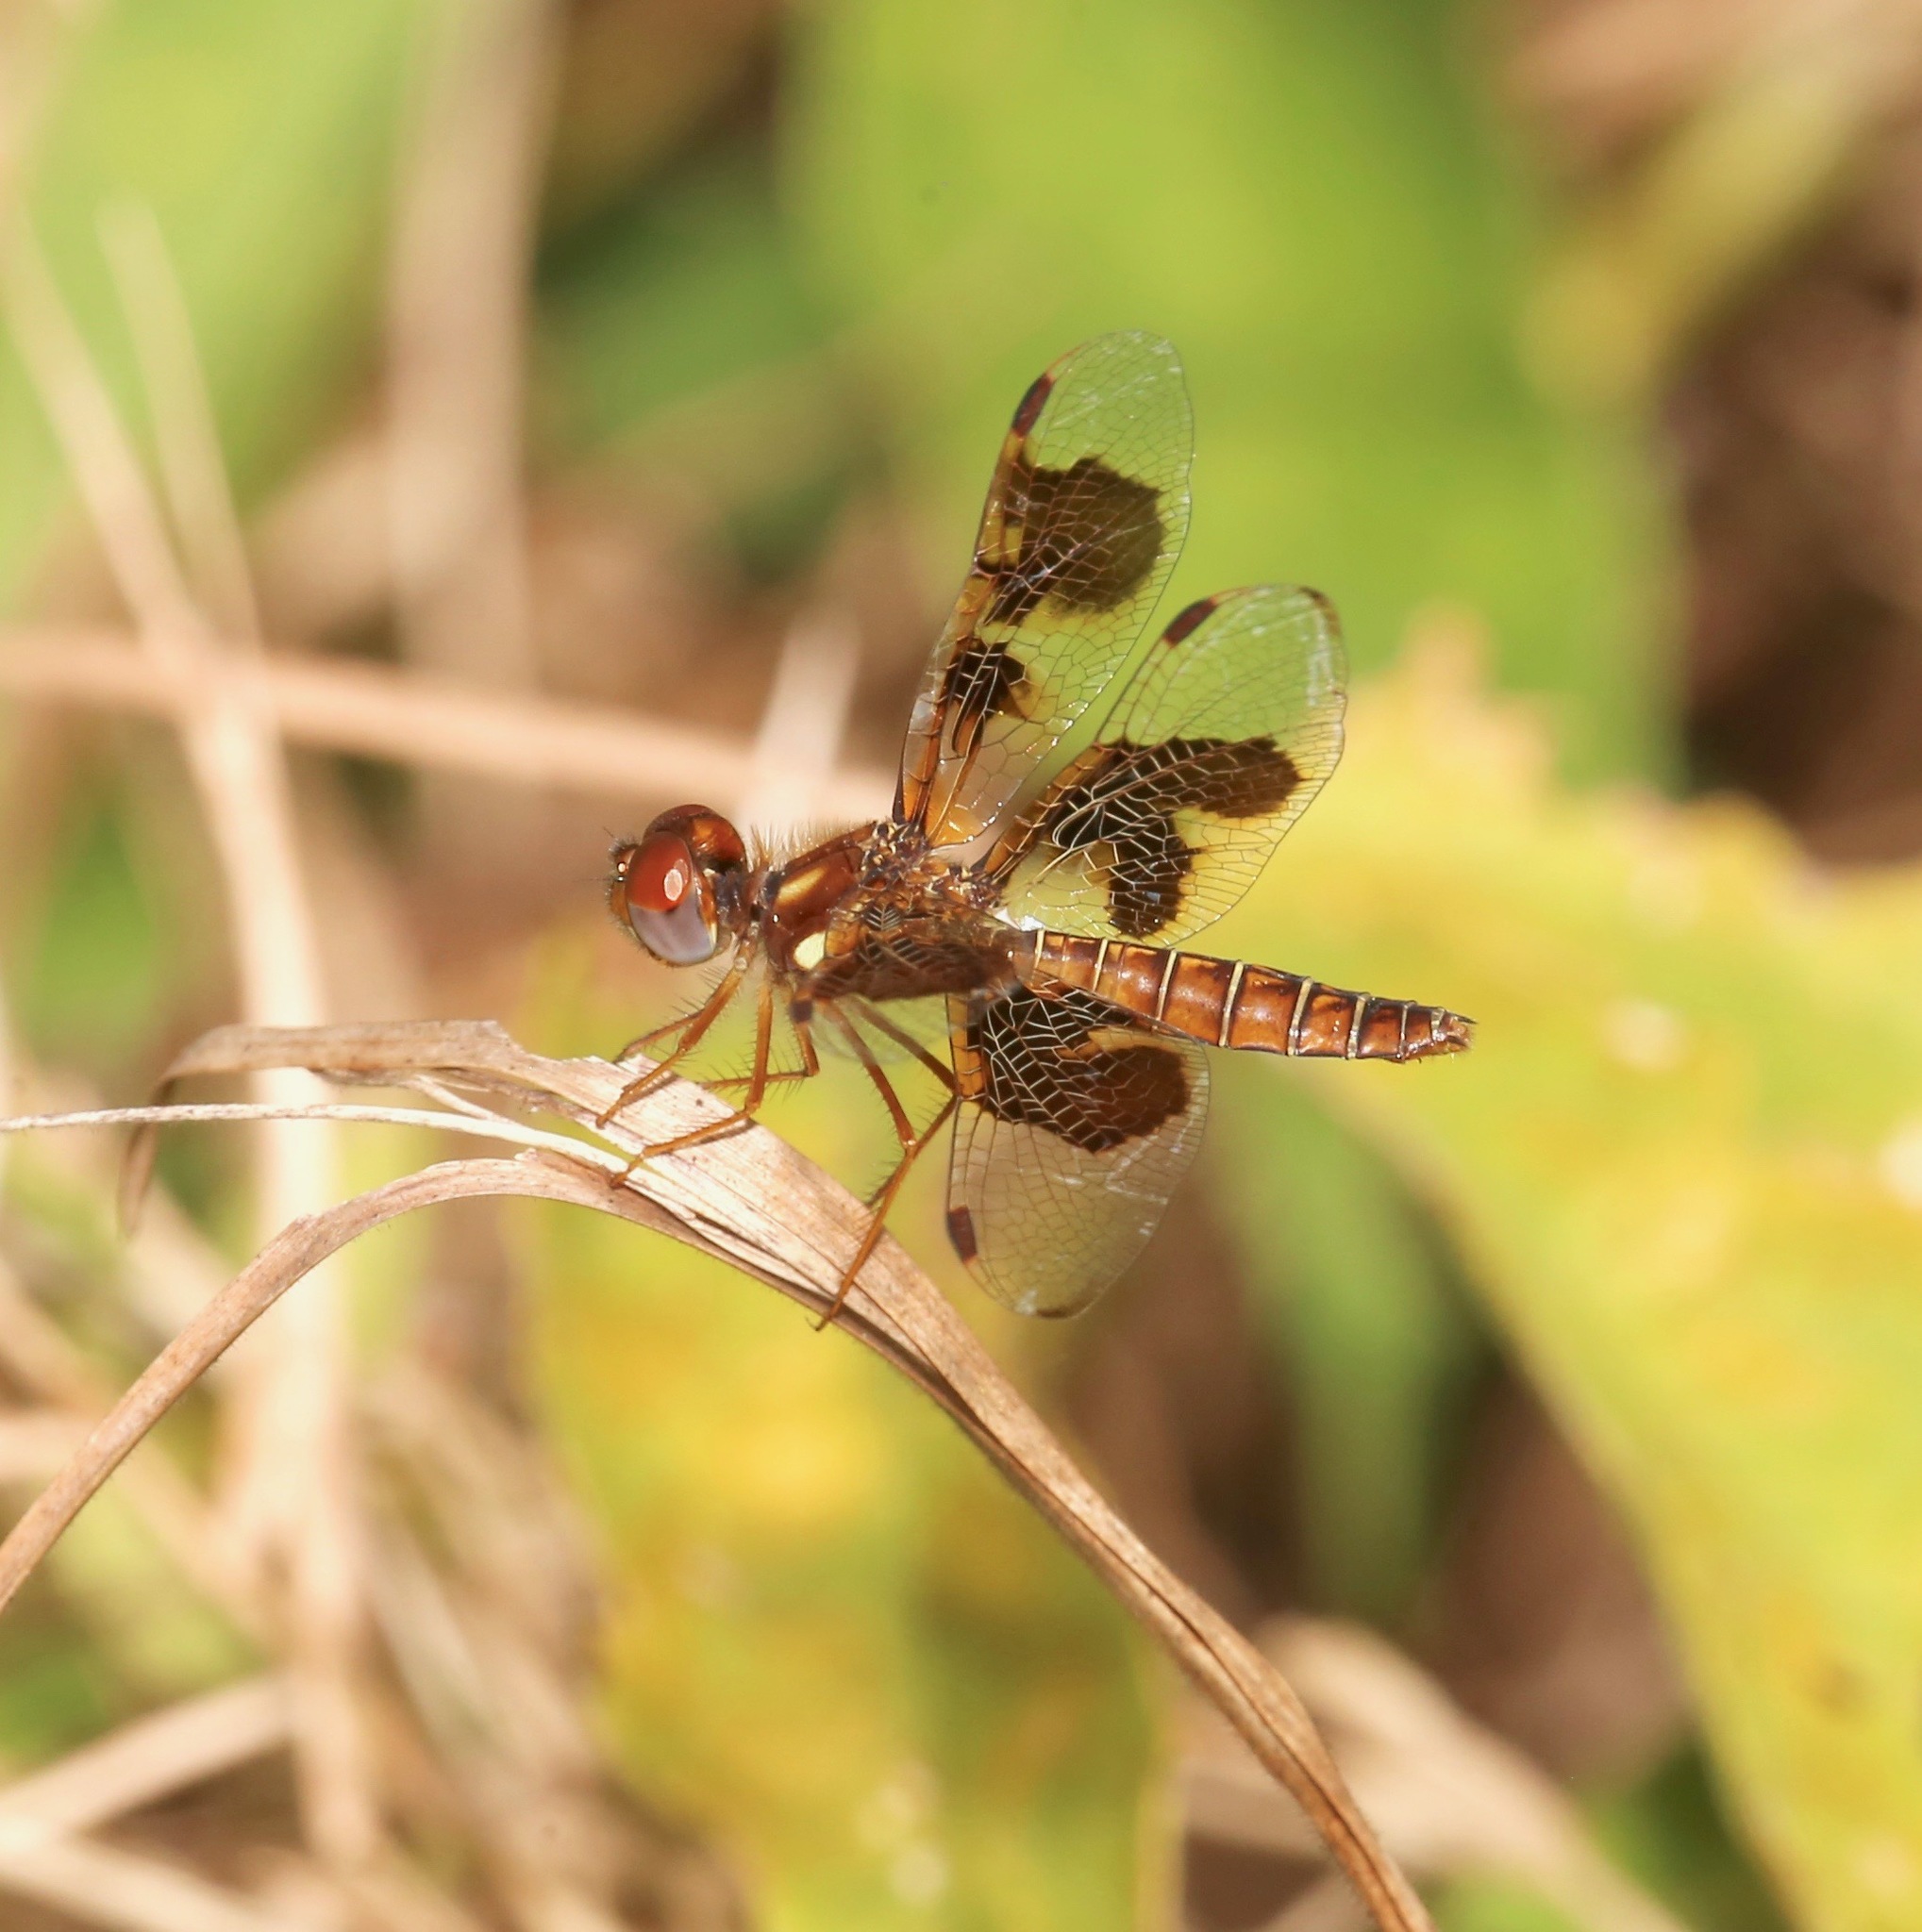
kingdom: Animalia
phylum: Arthropoda
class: Insecta
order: Odonata
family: Libellulidae
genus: Perithemis
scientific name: Perithemis tenera
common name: Eastern amberwing
